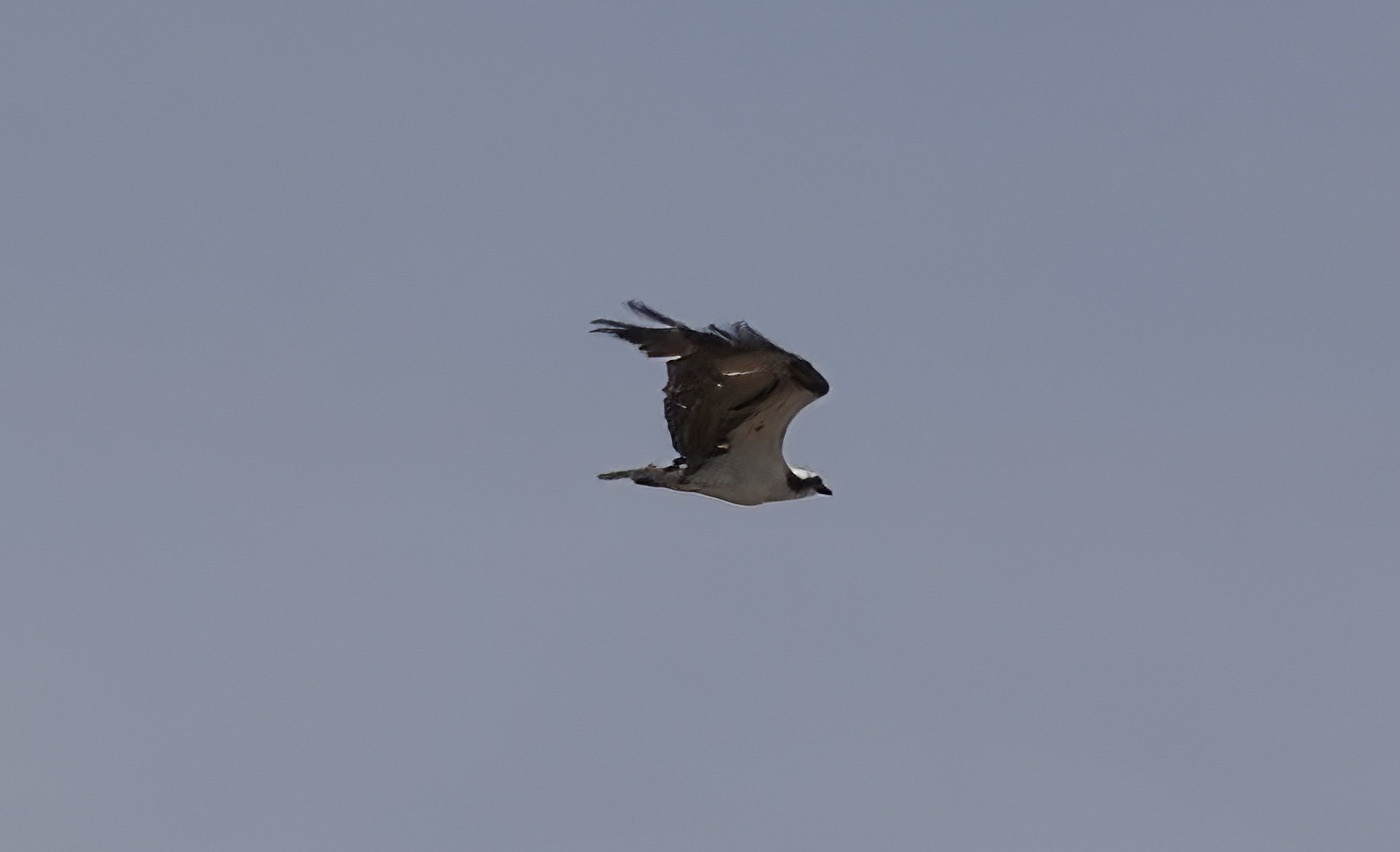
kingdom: Animalia
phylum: Chordata
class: Aves
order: Accipitriformes
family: Pandionidae
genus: Pandion
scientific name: Pandion haliaetus
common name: Osprey
